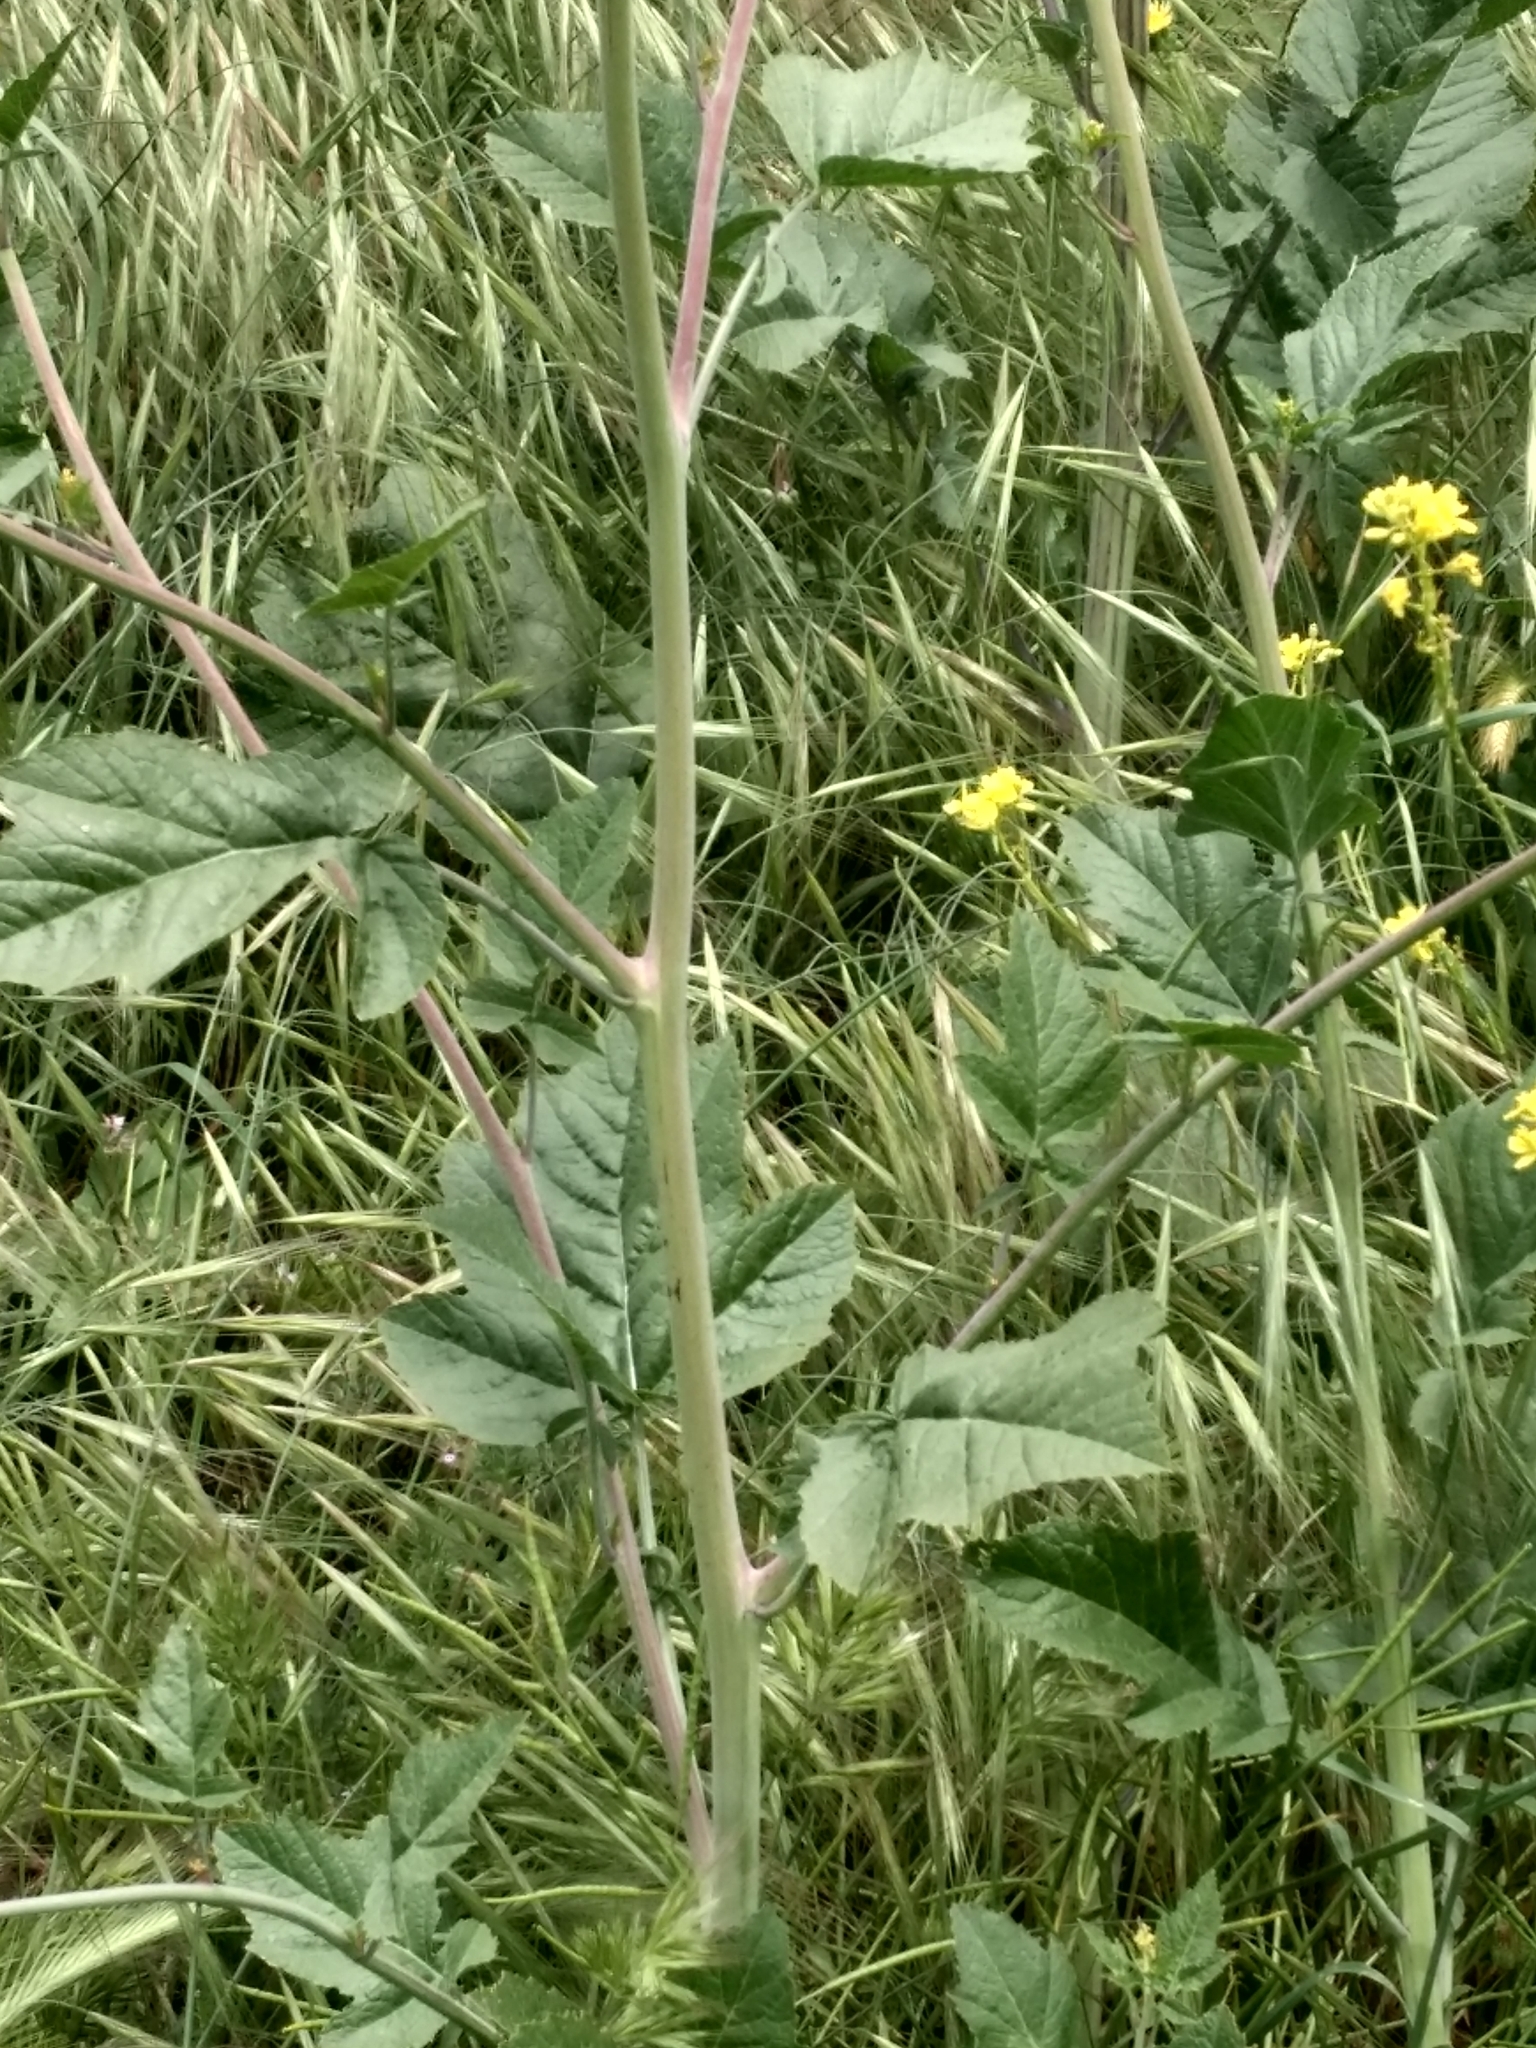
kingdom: Plantae
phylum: Tracheophyta
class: Magnoliopsida
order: Brassicales
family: Brassicaceae
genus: Brassica
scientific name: Brassica nigra
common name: Black mustard
